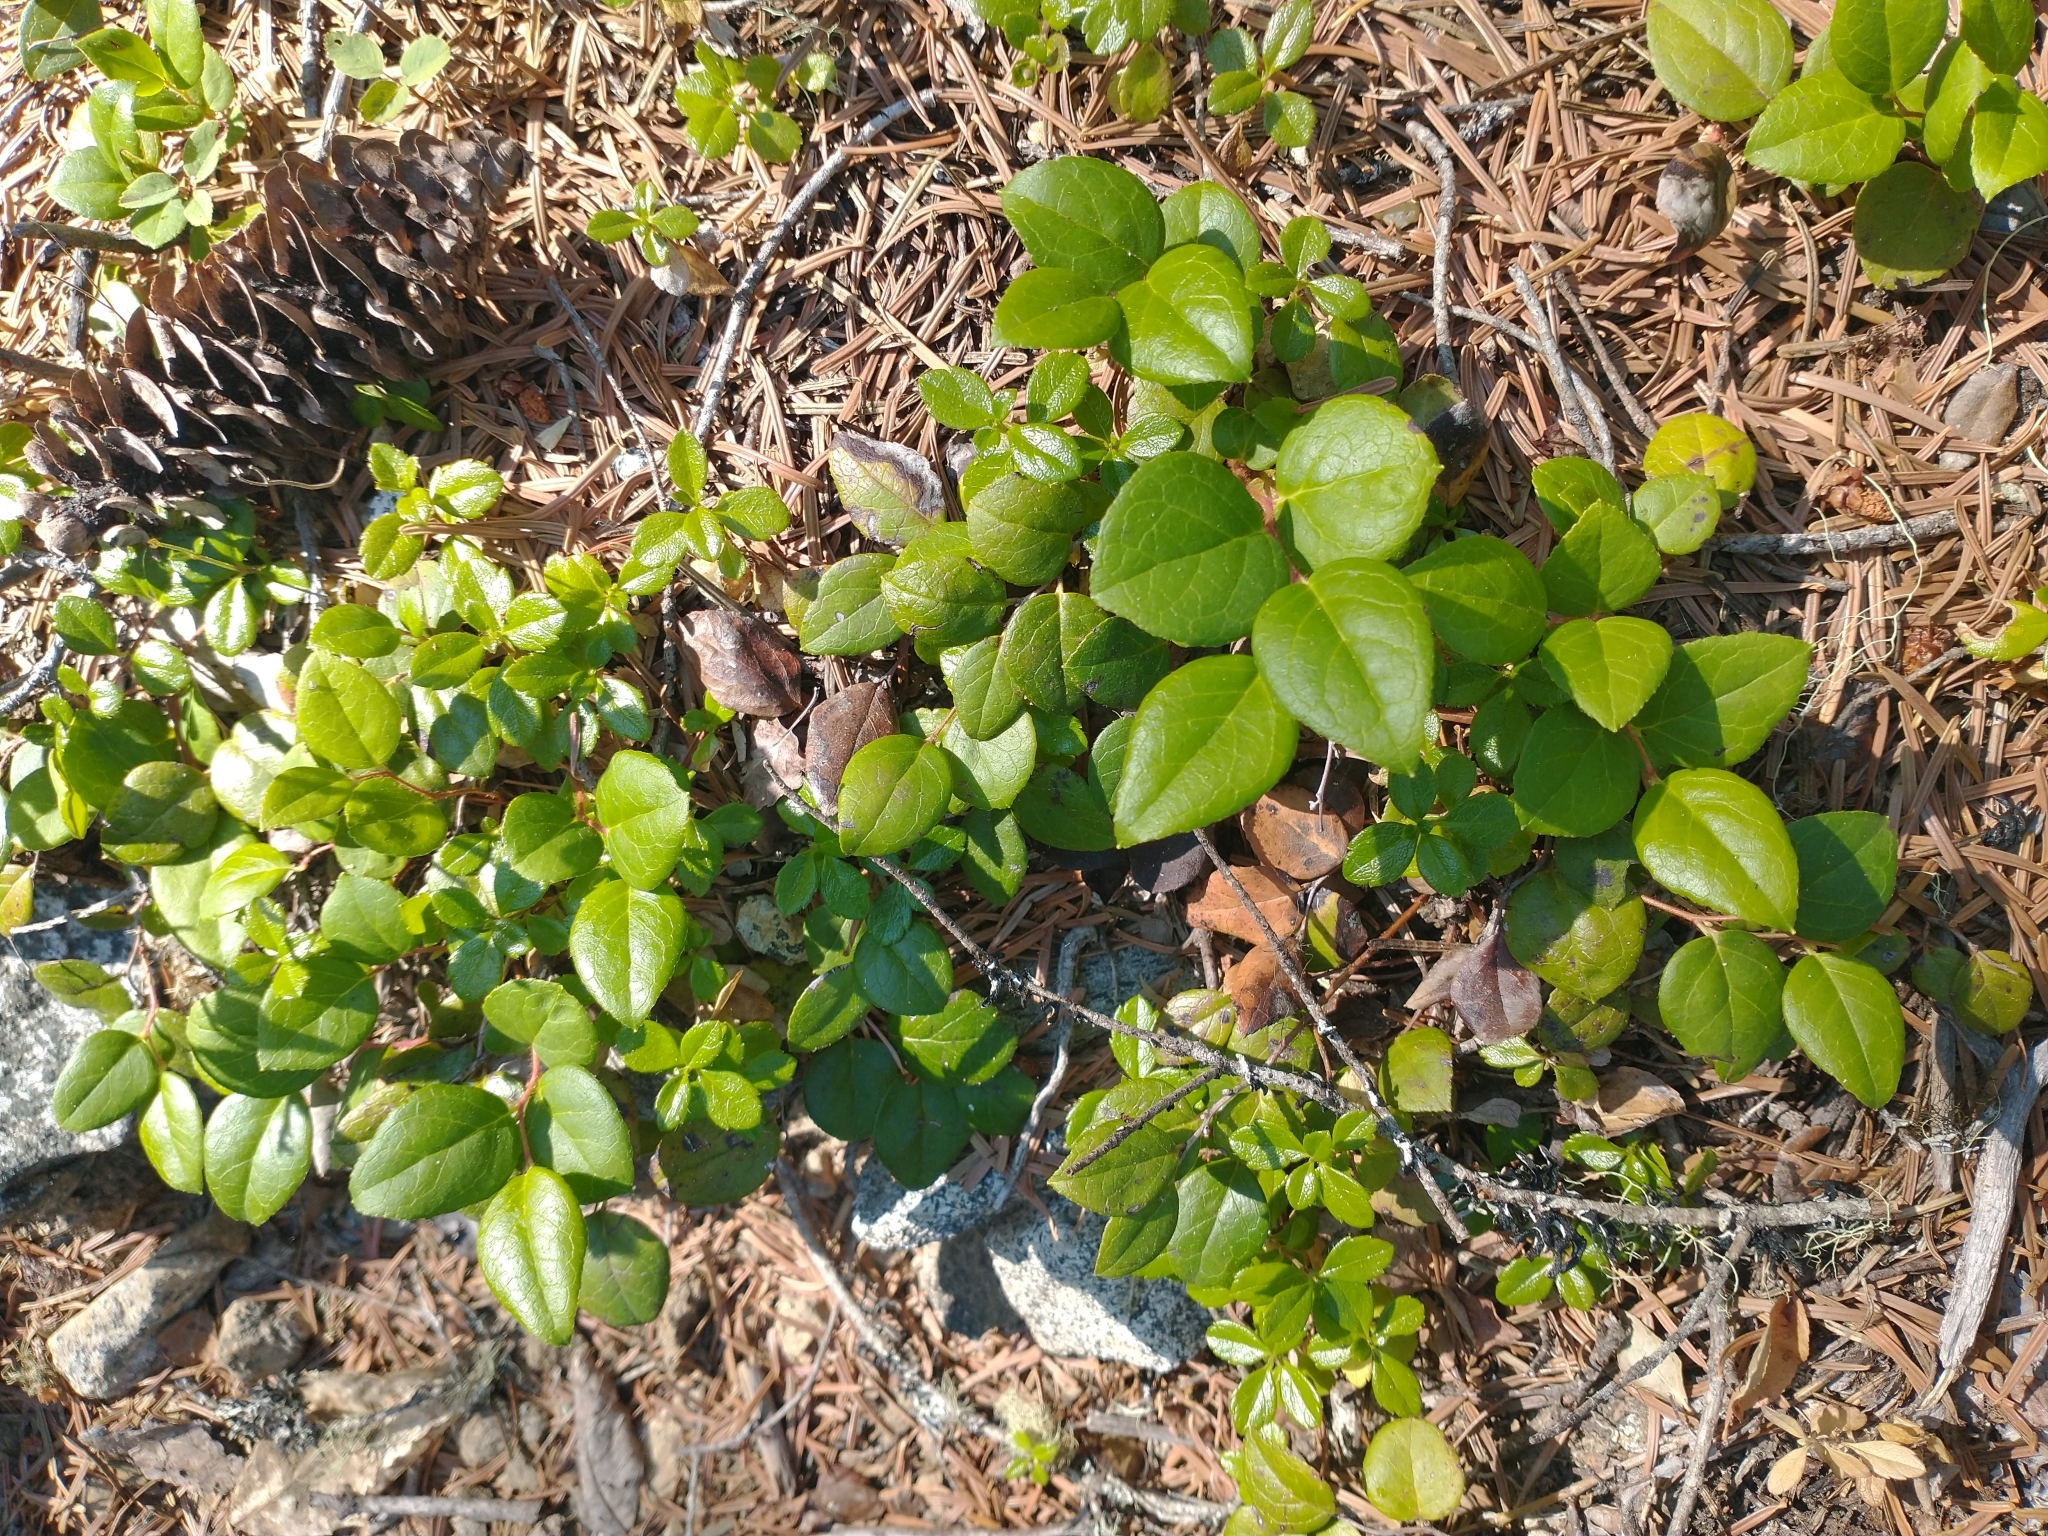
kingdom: Plantae
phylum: Tracheophyta
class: Magnoliopsida
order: Ericales
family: Ericaceae
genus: Gaultheria
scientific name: Gaultheria ovatifolia
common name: Oregon wintergreen
